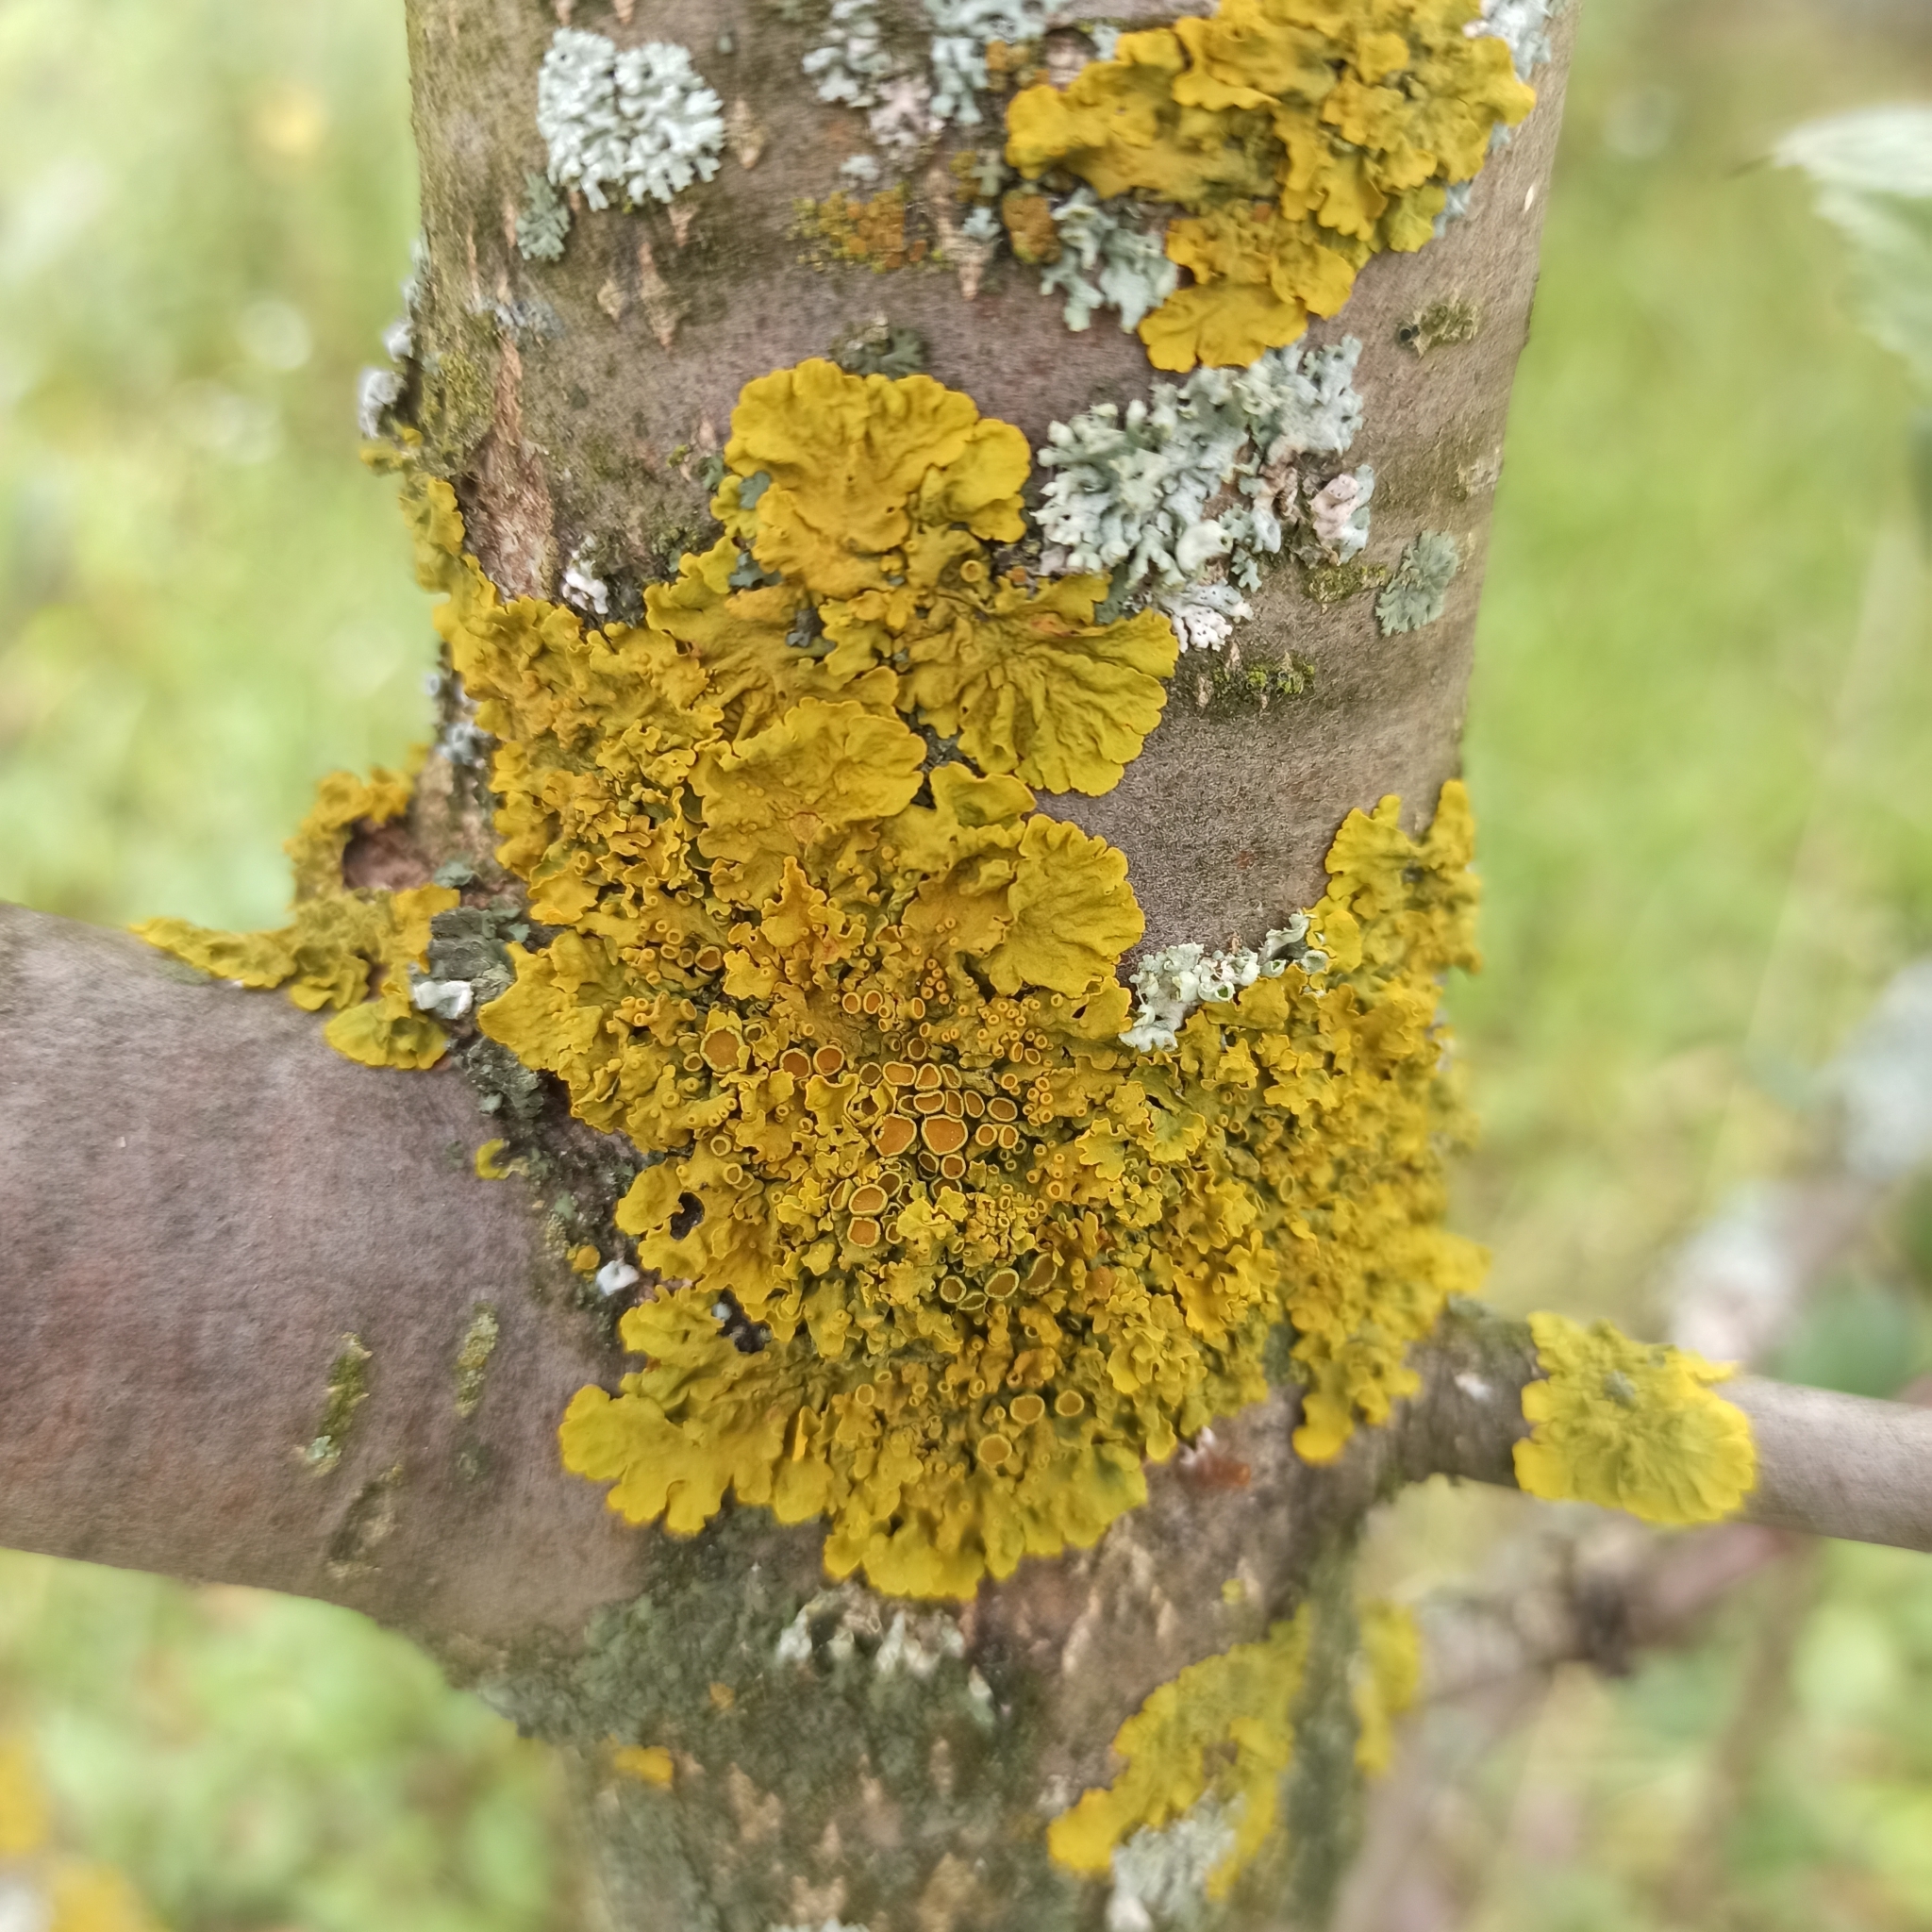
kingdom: Fungi
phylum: Ascomycota
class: Lecanoromycetes
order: Teloschistales
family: Teloschistaceae
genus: Xanthoria
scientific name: Xanthoria parietina
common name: Common orange lichen
